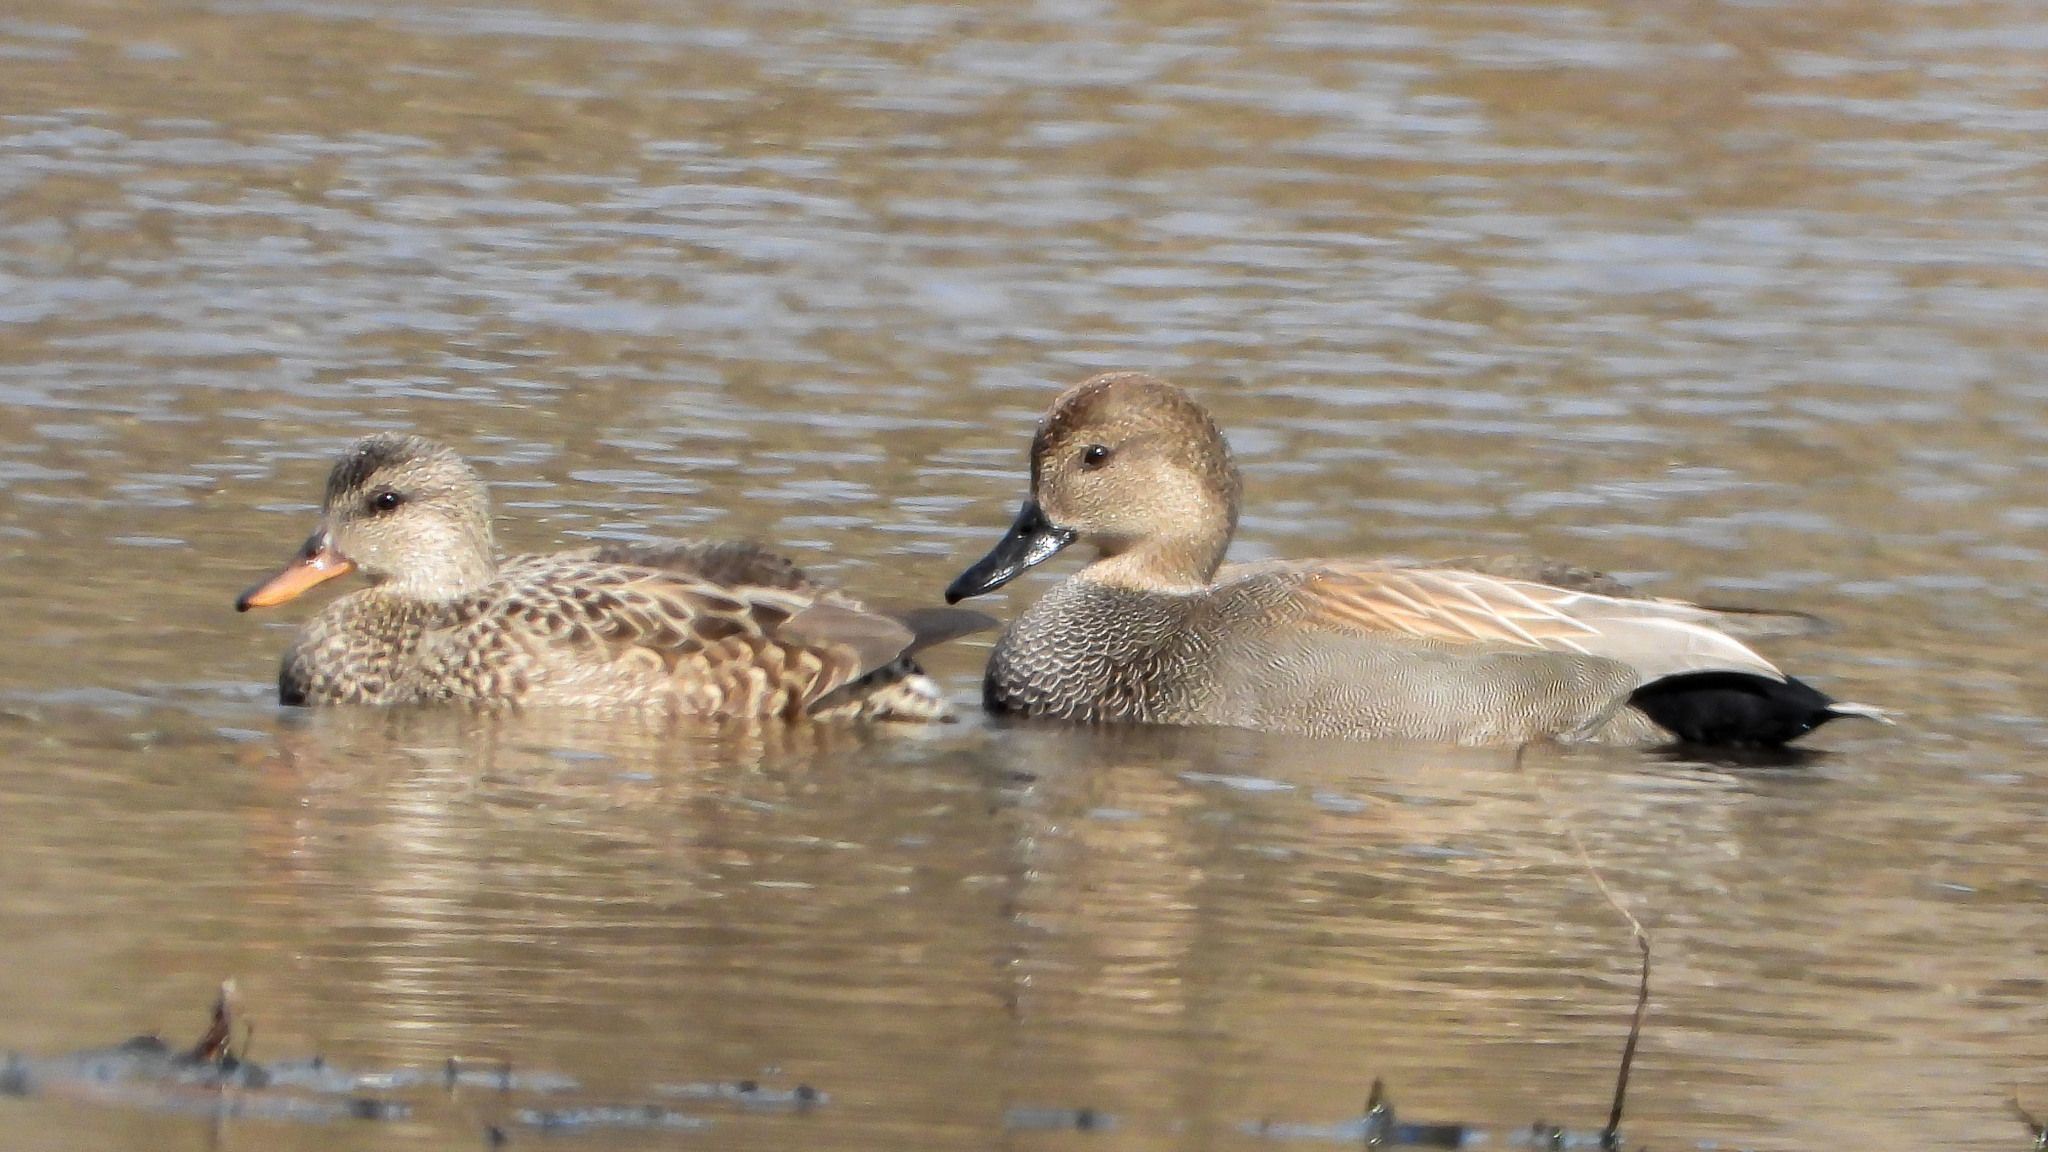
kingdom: Animalia
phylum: Chordata
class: Aves
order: Anseriformes
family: Anatidae
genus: Mareca
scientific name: Mareca strepera
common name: Gadwall
